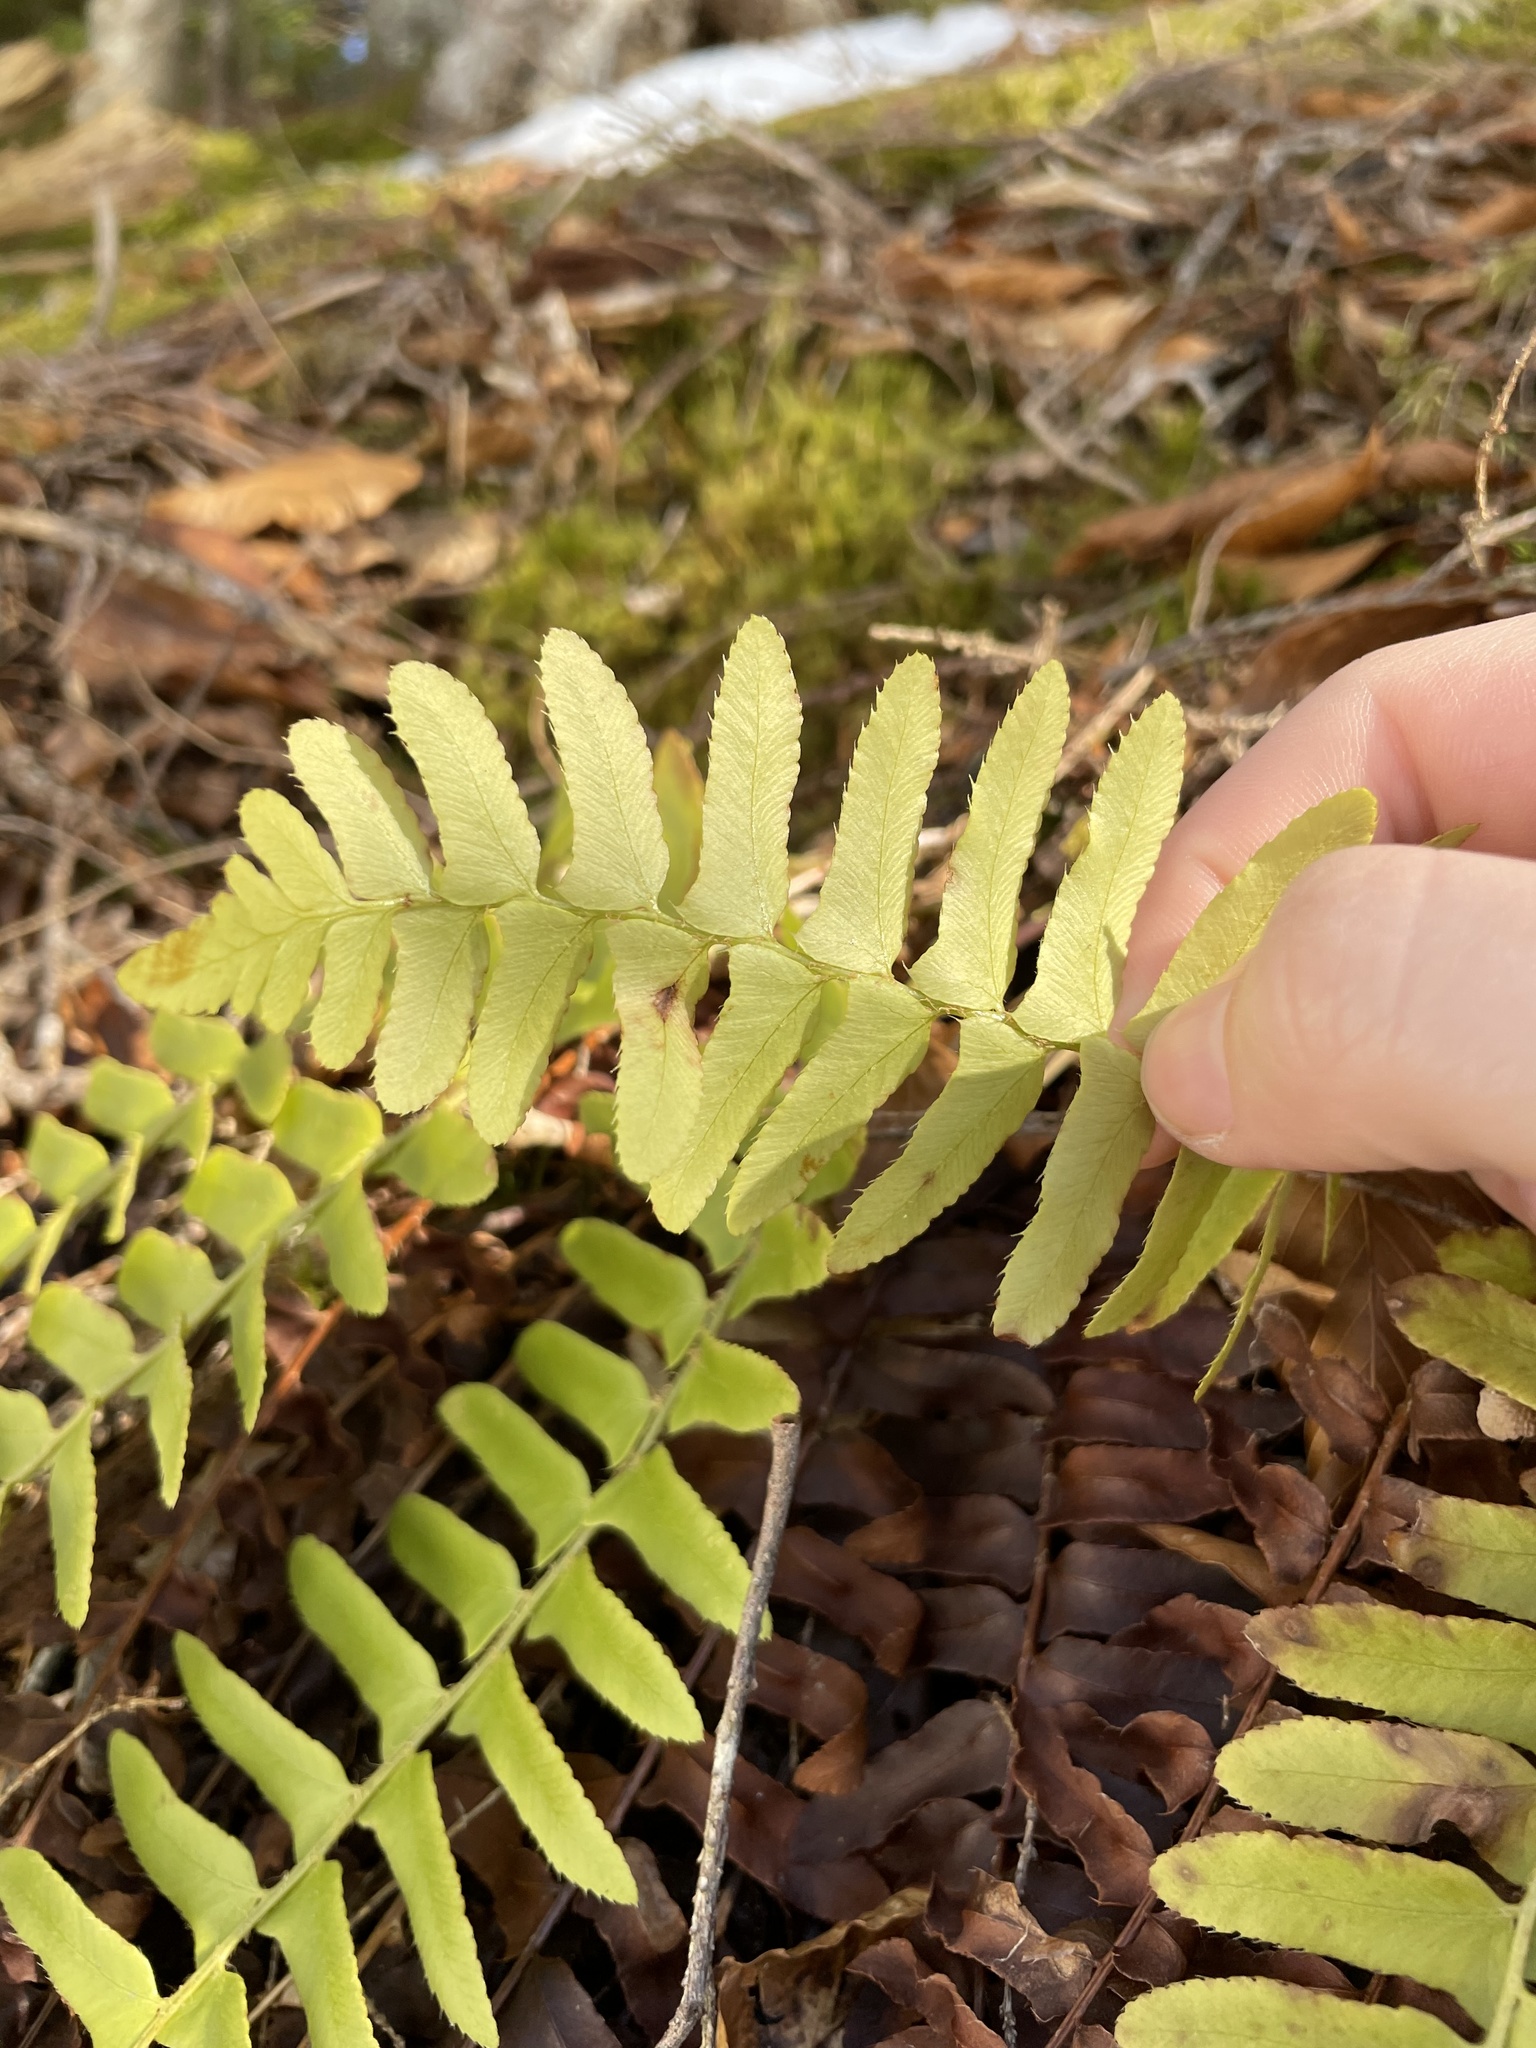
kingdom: Plantae
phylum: Tracheophyta
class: Polypodiopsida
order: Polypodiales
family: Dryopteridaceae
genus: Polystichum
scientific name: Polystichum acrostichoides
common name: Christmas fern
